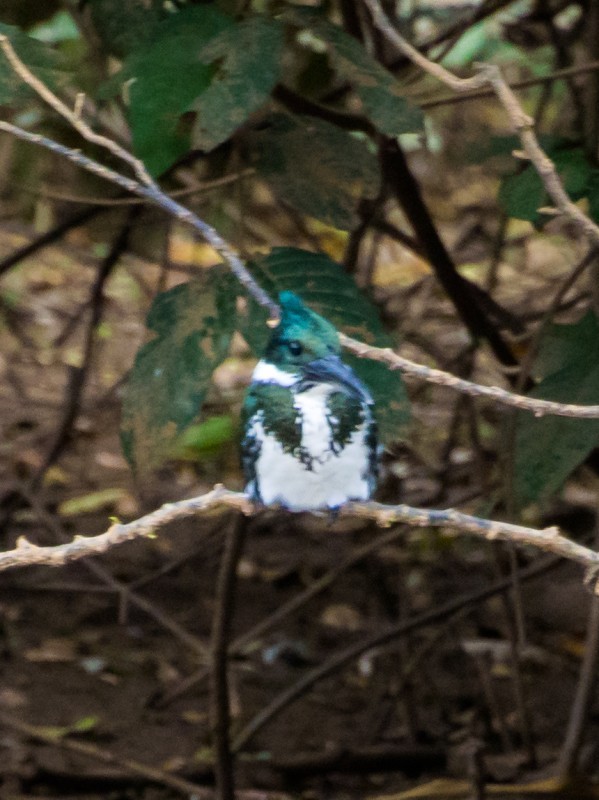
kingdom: Animalia
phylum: Chordata
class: Aves
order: Coraciiformes
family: Alcedinidae
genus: Chloroceryle
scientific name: Chloroceryle amazona
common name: Amazon kingfisher
